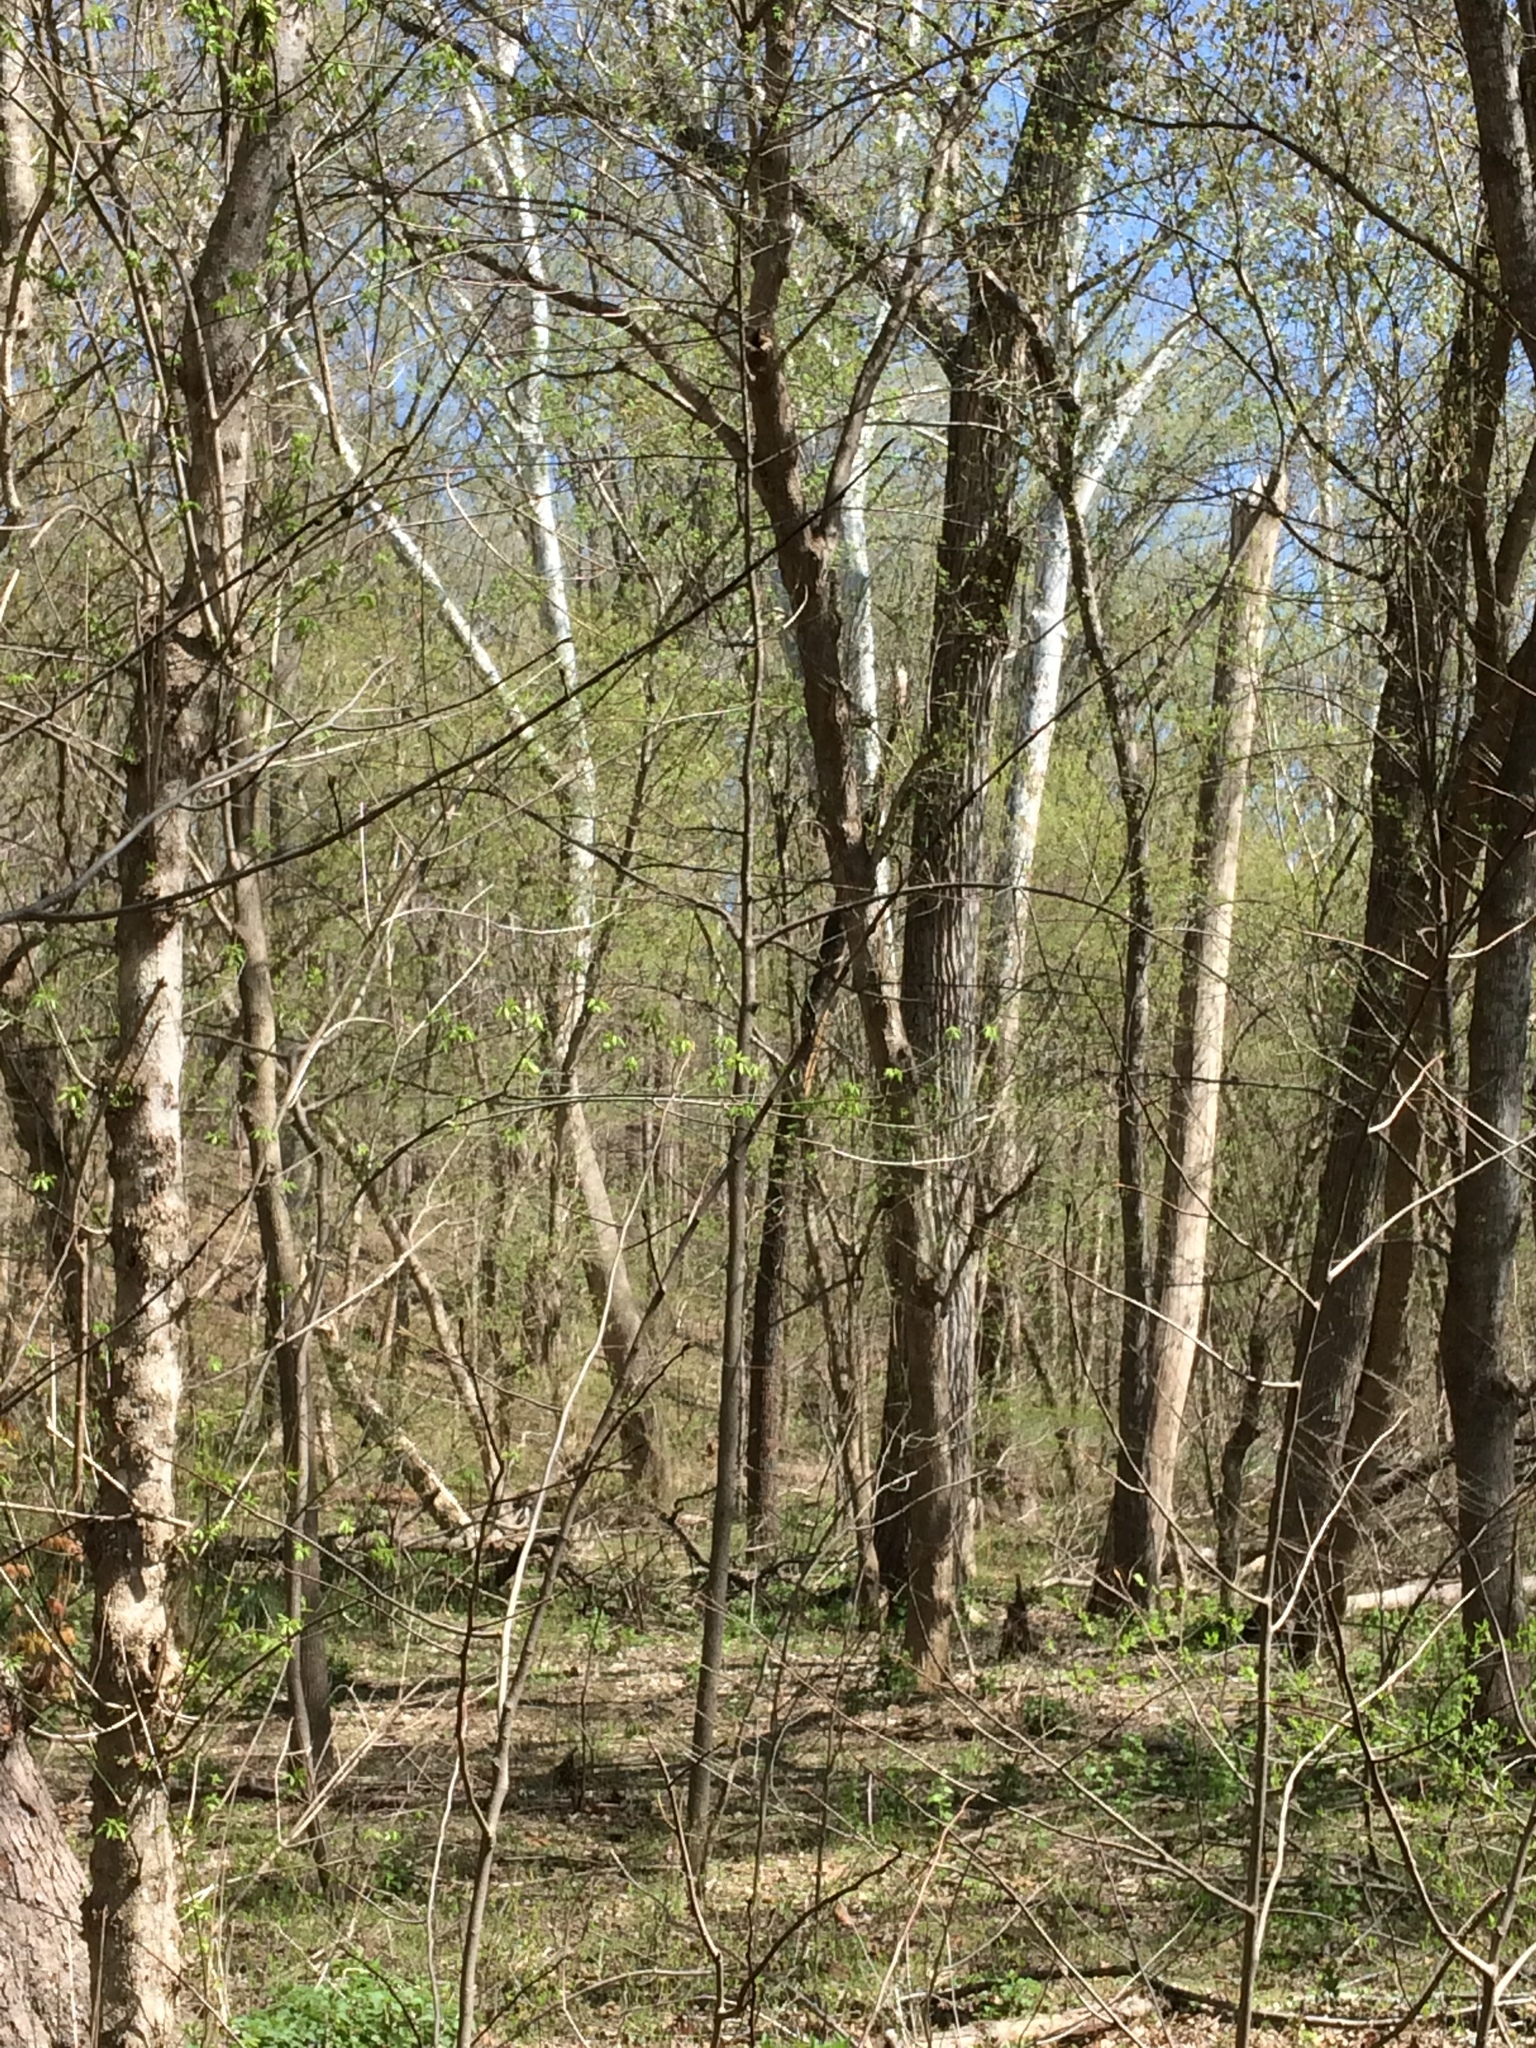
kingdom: Plantae
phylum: Tracheophyta
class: Magnoliopsida
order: Proteales
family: Platanaceae
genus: Platanus
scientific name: Platanus occidentalis
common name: American sycamore
